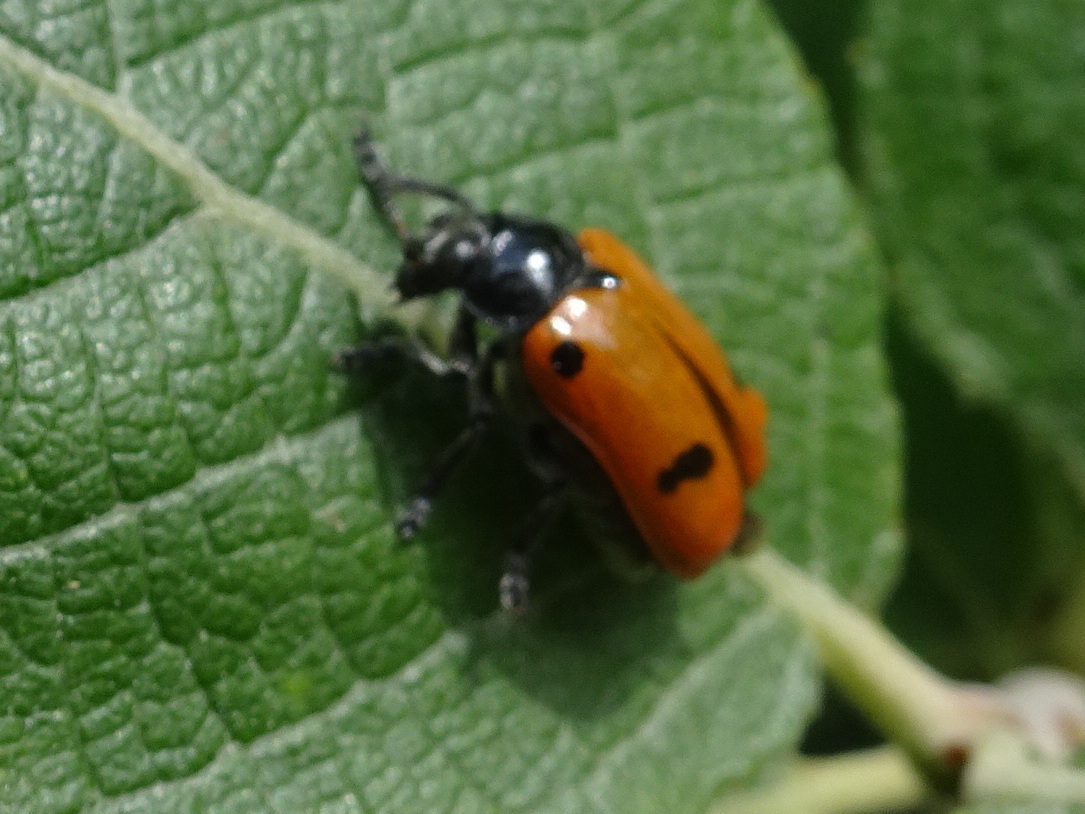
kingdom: Animalia
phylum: Arthropoda
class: Insecta
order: Coleoptera
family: Chrysomelidae
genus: Clytra
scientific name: Clytra quadripunctata
